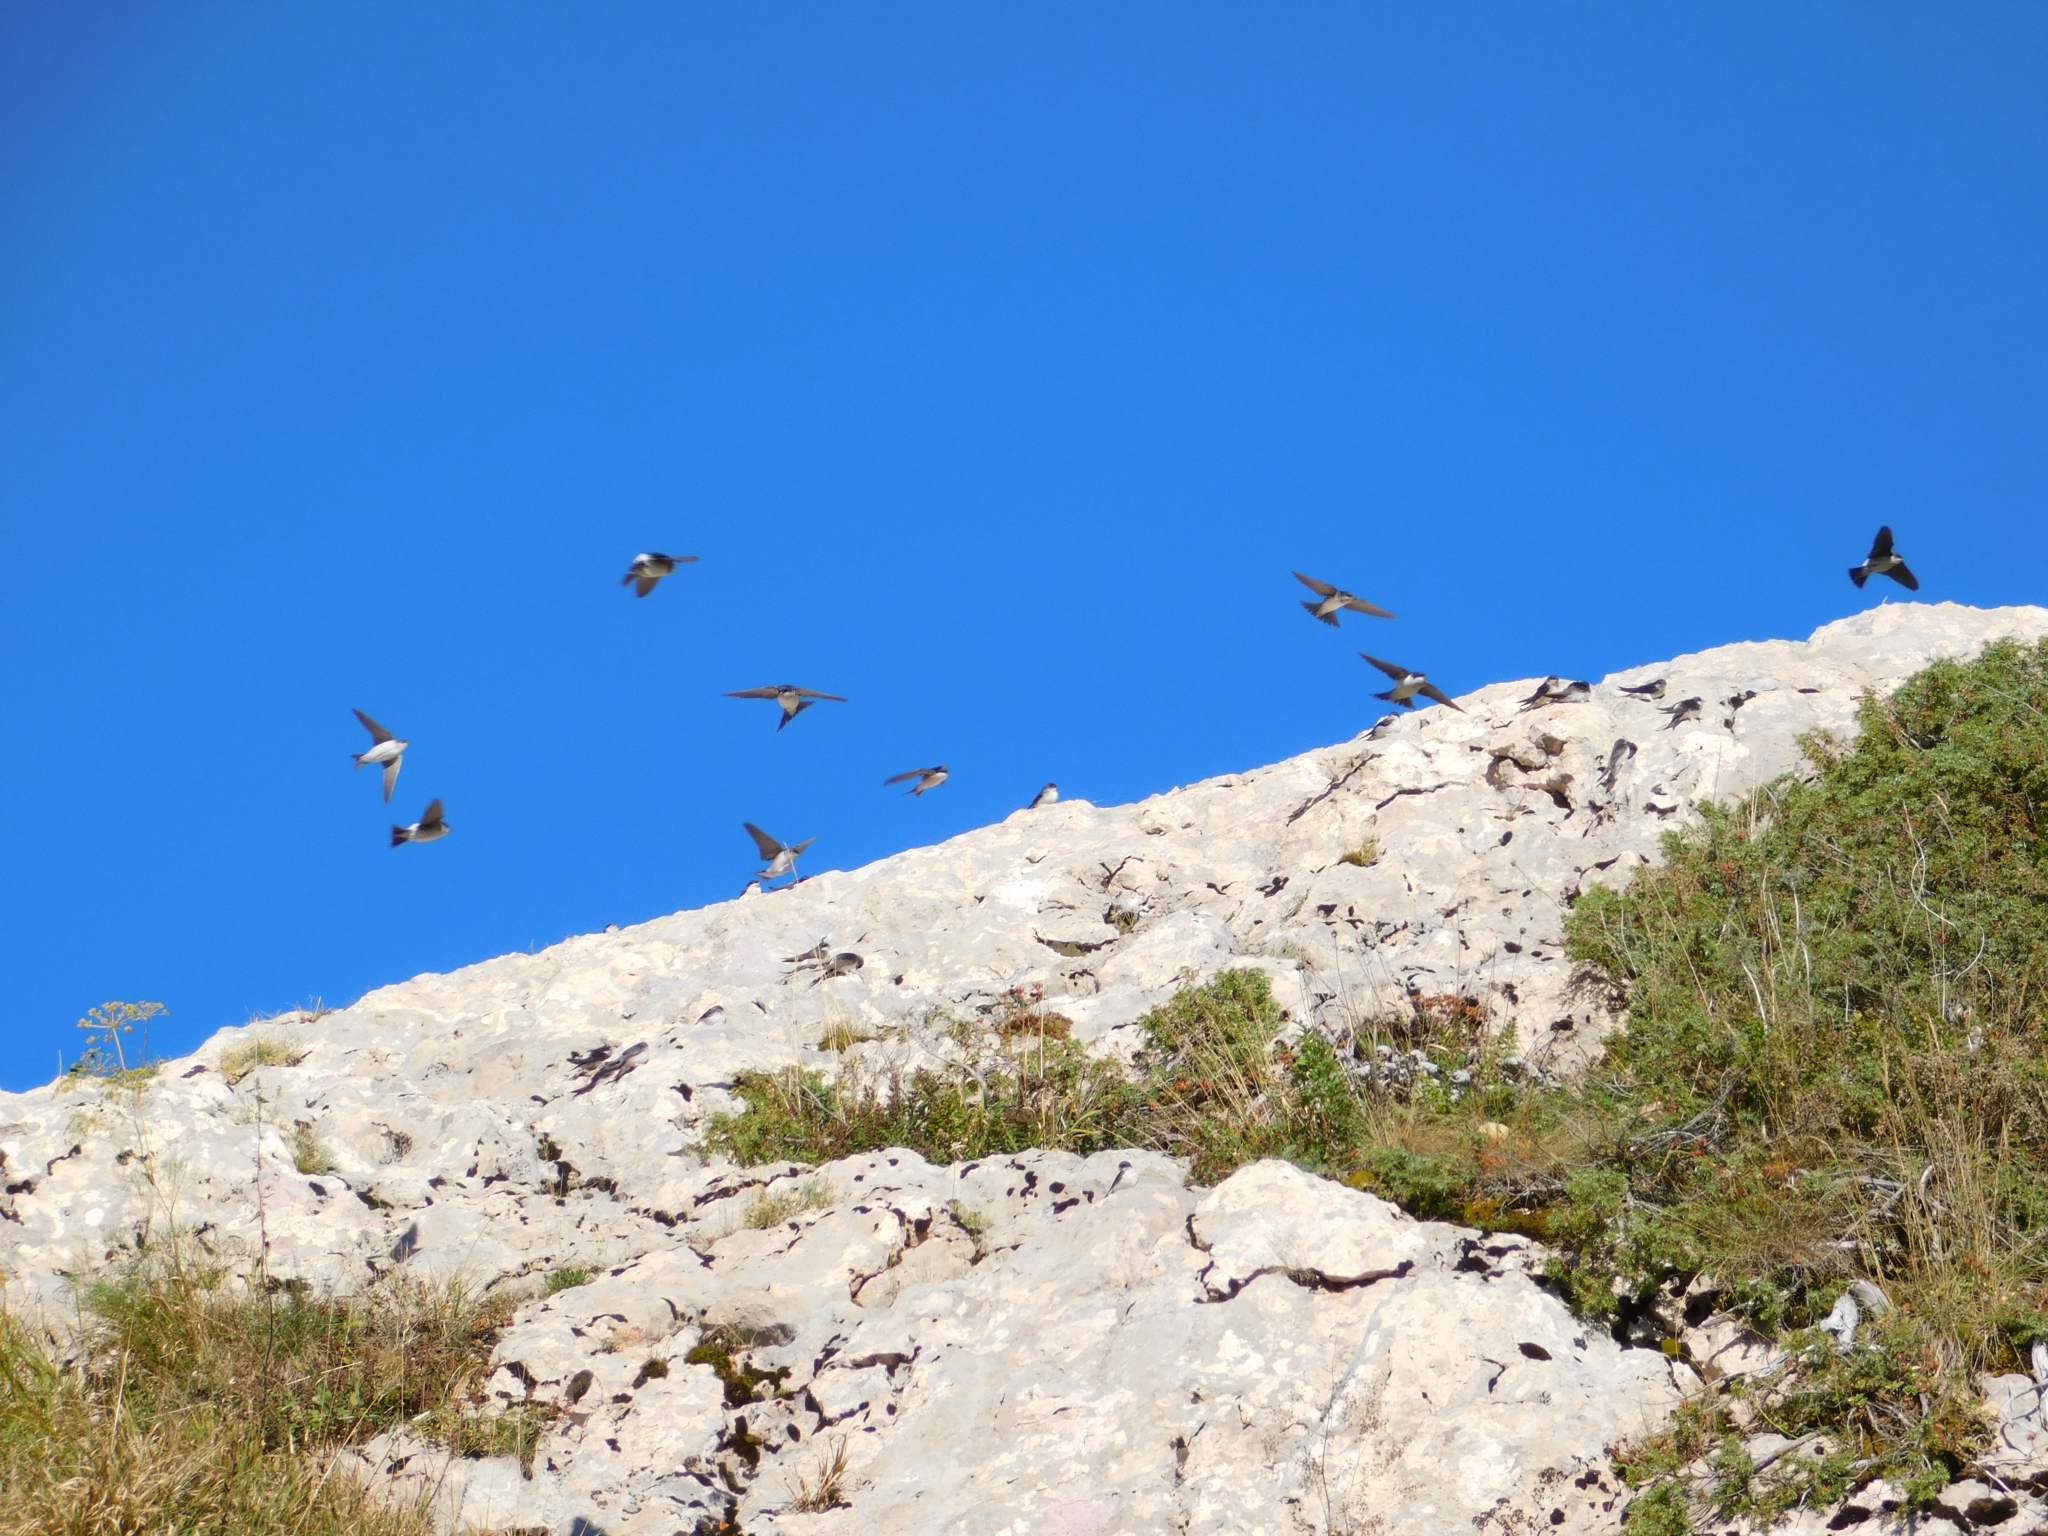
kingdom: Animalia
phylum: Chordata
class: Aves
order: Passeriformes
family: Hirundinidae
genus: Delichon
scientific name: Delichon urbicum
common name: Common house martin
